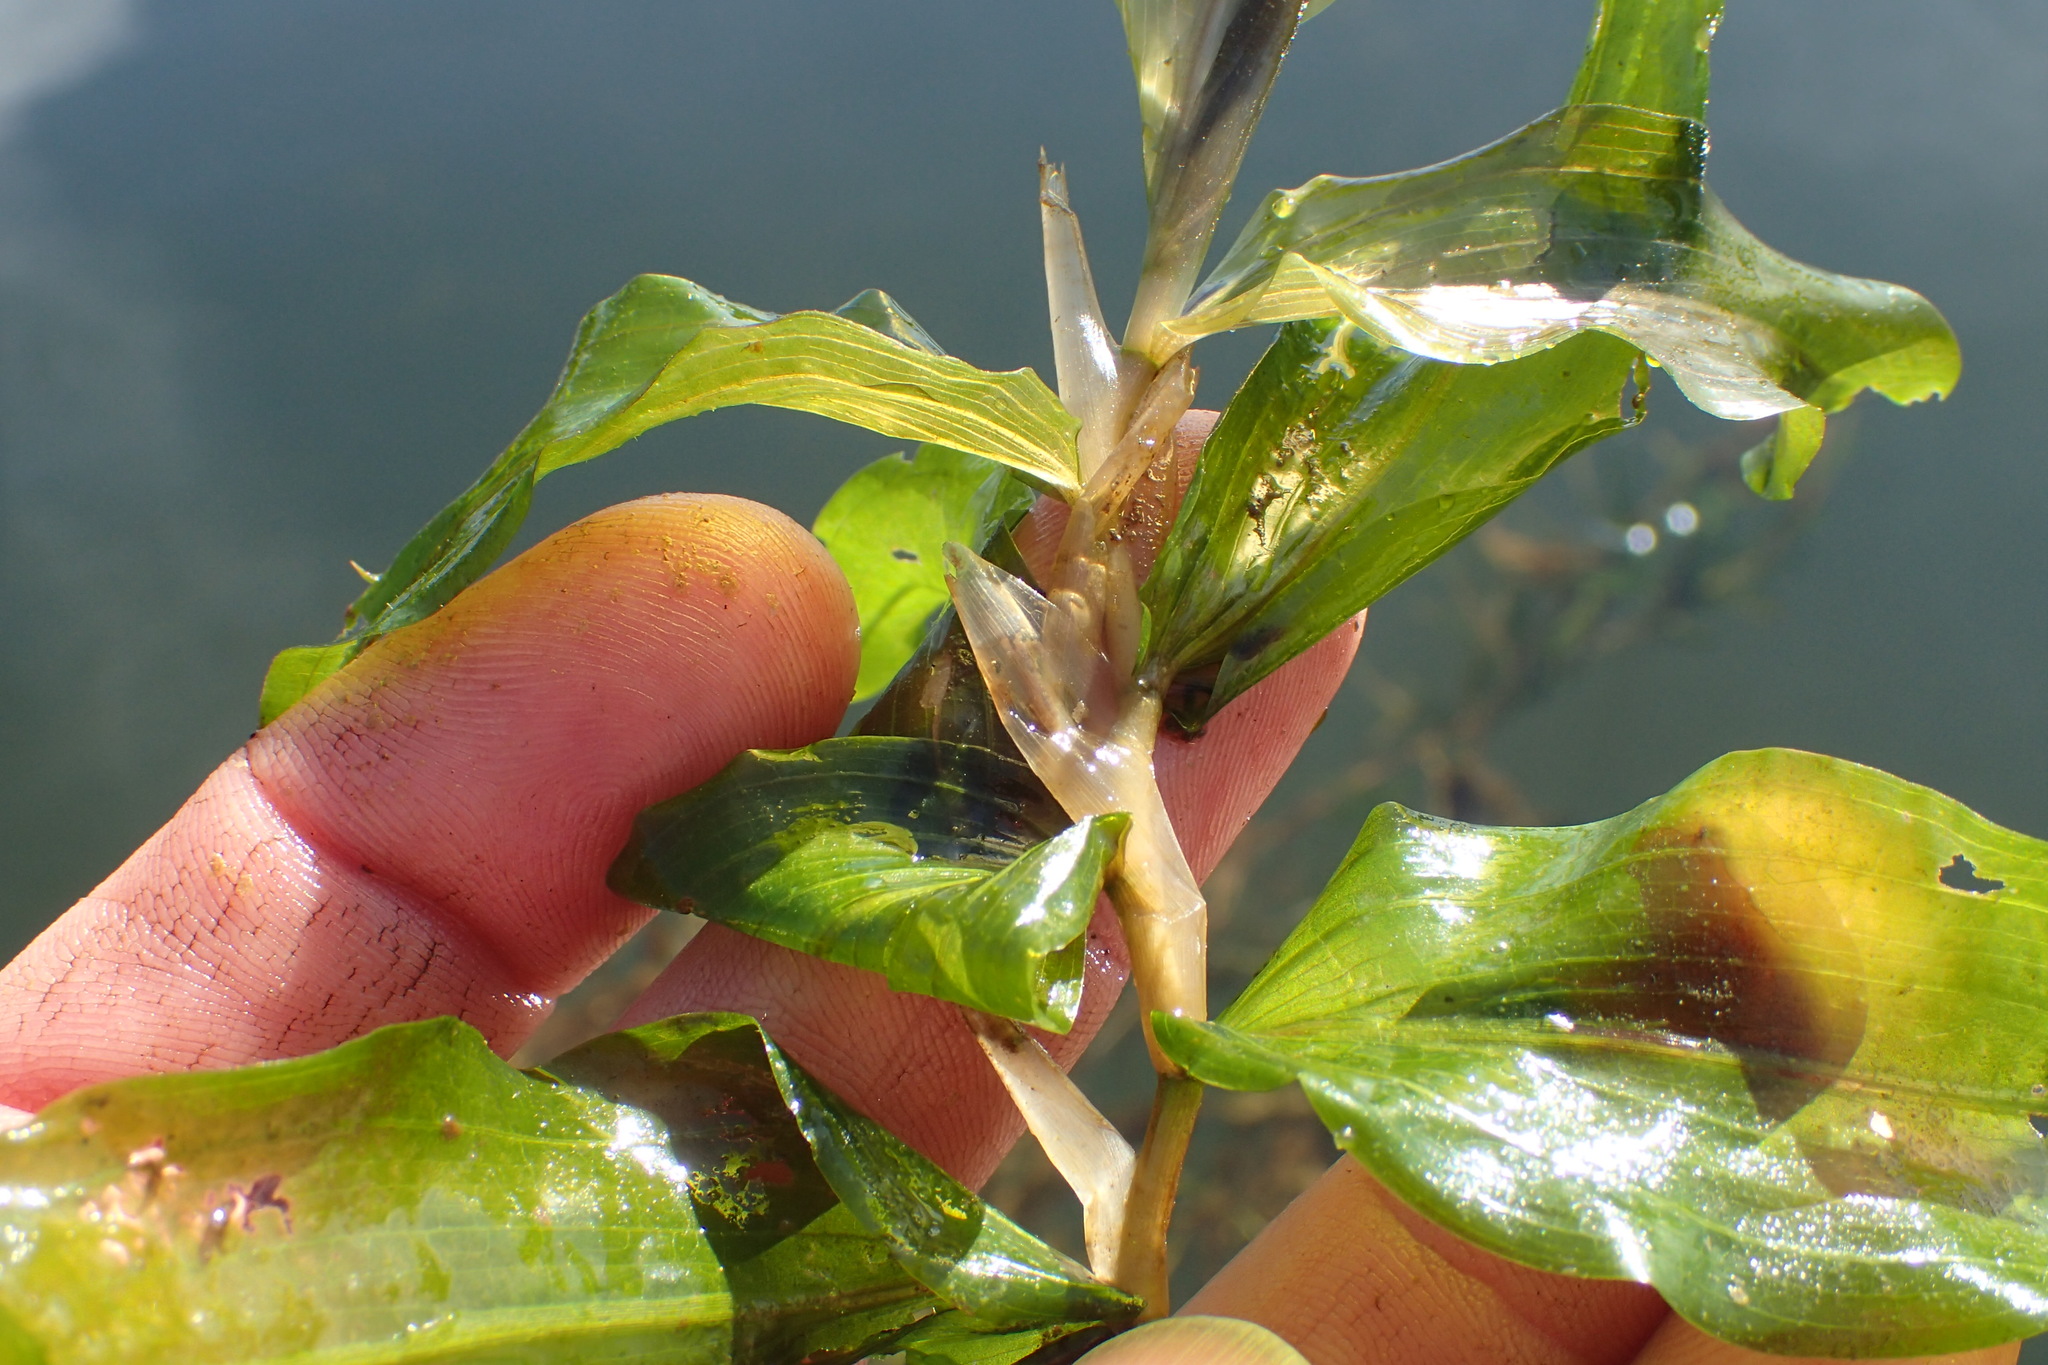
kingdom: Plantae
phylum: Tracheophyta
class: Liliopsida
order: Alismatales
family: Potamogetonaceae
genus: Potamogeton
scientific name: Potamogeton praelongus
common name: Long-stalked pondweed
